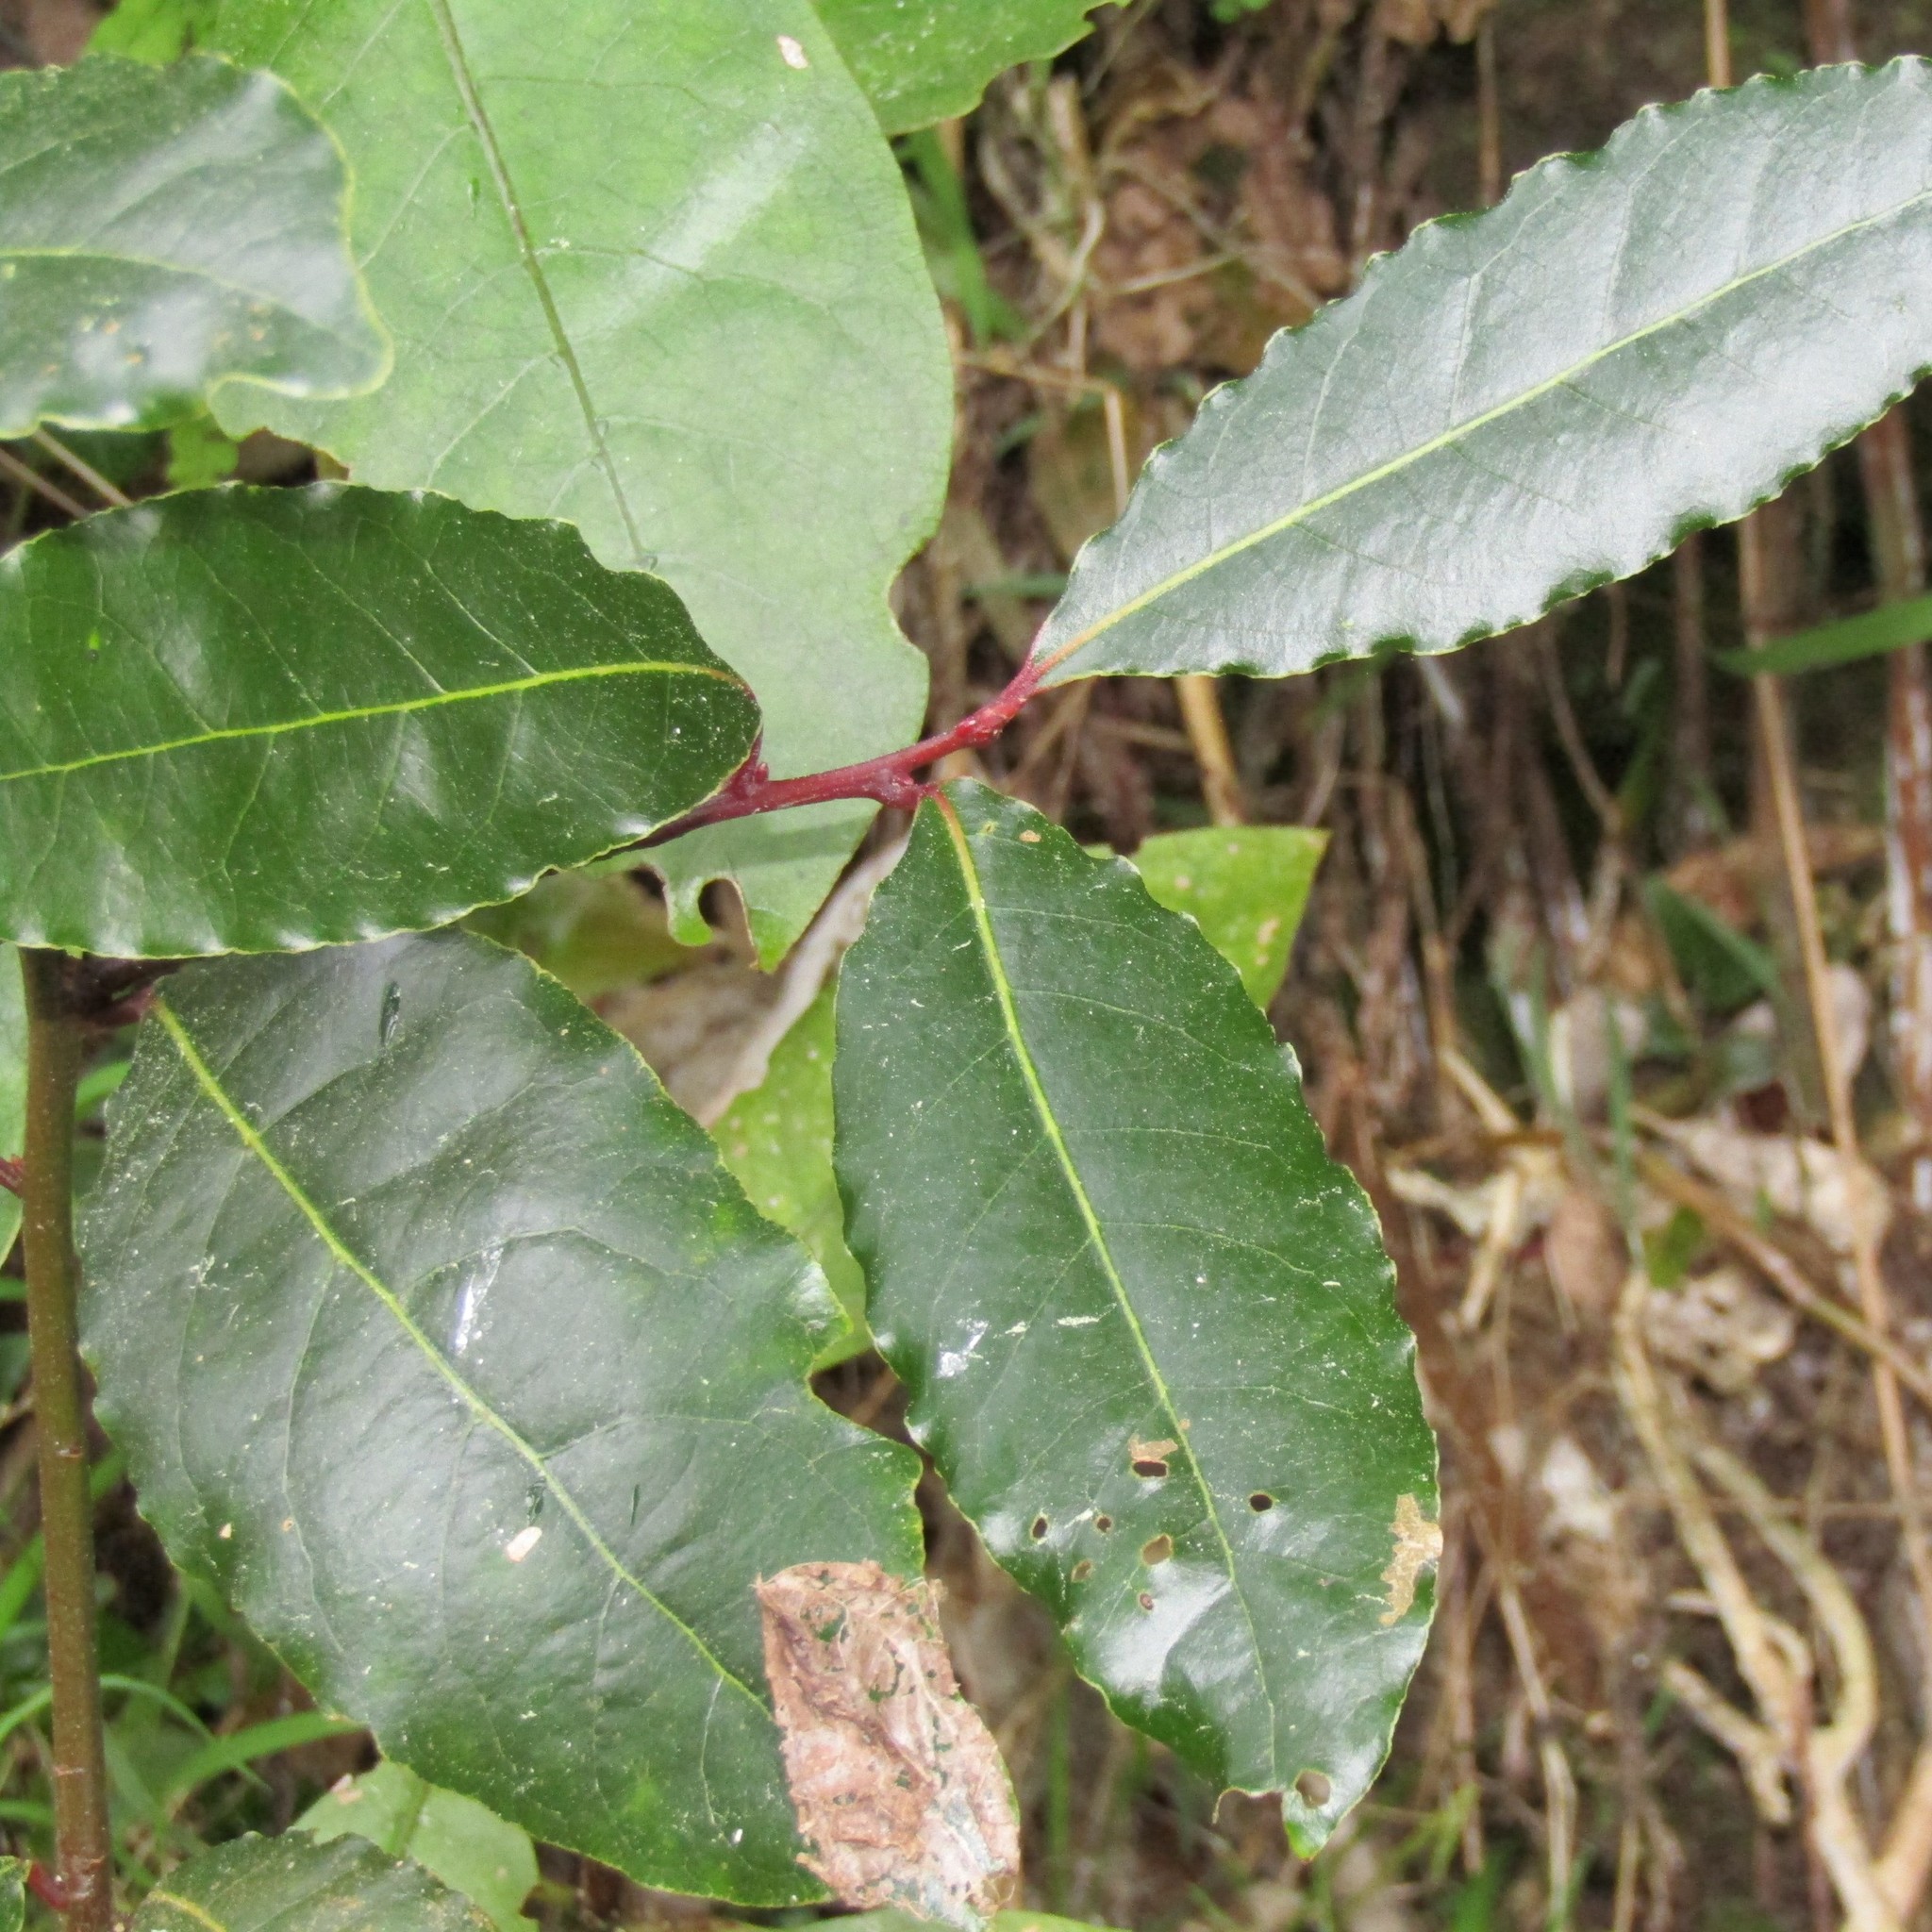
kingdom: Plantae
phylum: Tracheophyta
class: Magnoliopsida
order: Laurales
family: Lauraceae
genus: Laurus
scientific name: Laurus nobilis
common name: Bay
